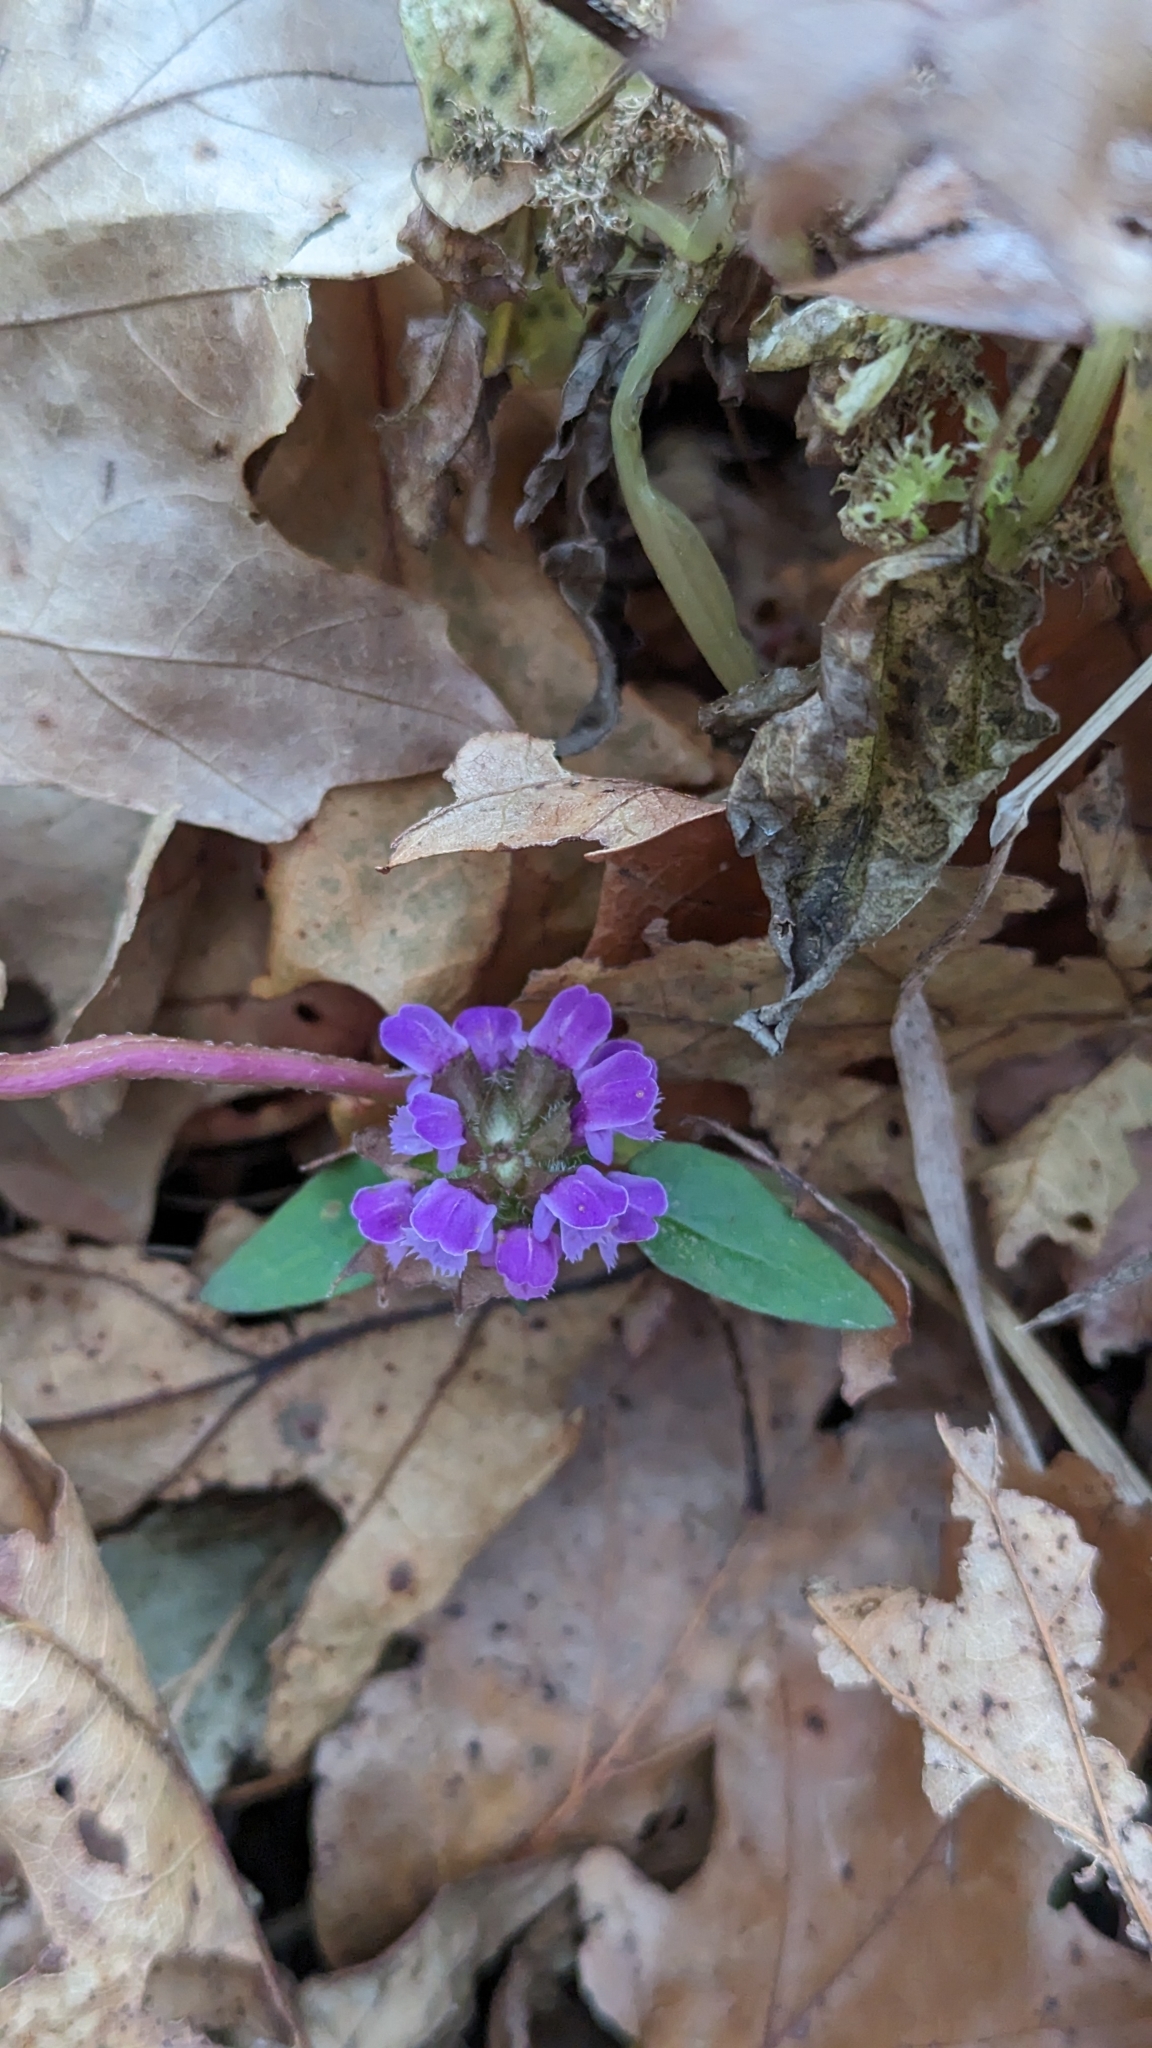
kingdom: Plantae
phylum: Tracheophyta
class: Magnoliopsida
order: Lamiales
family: Lamiaceae
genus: Prunella
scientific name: Prunella vulgaris
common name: Heal-all
